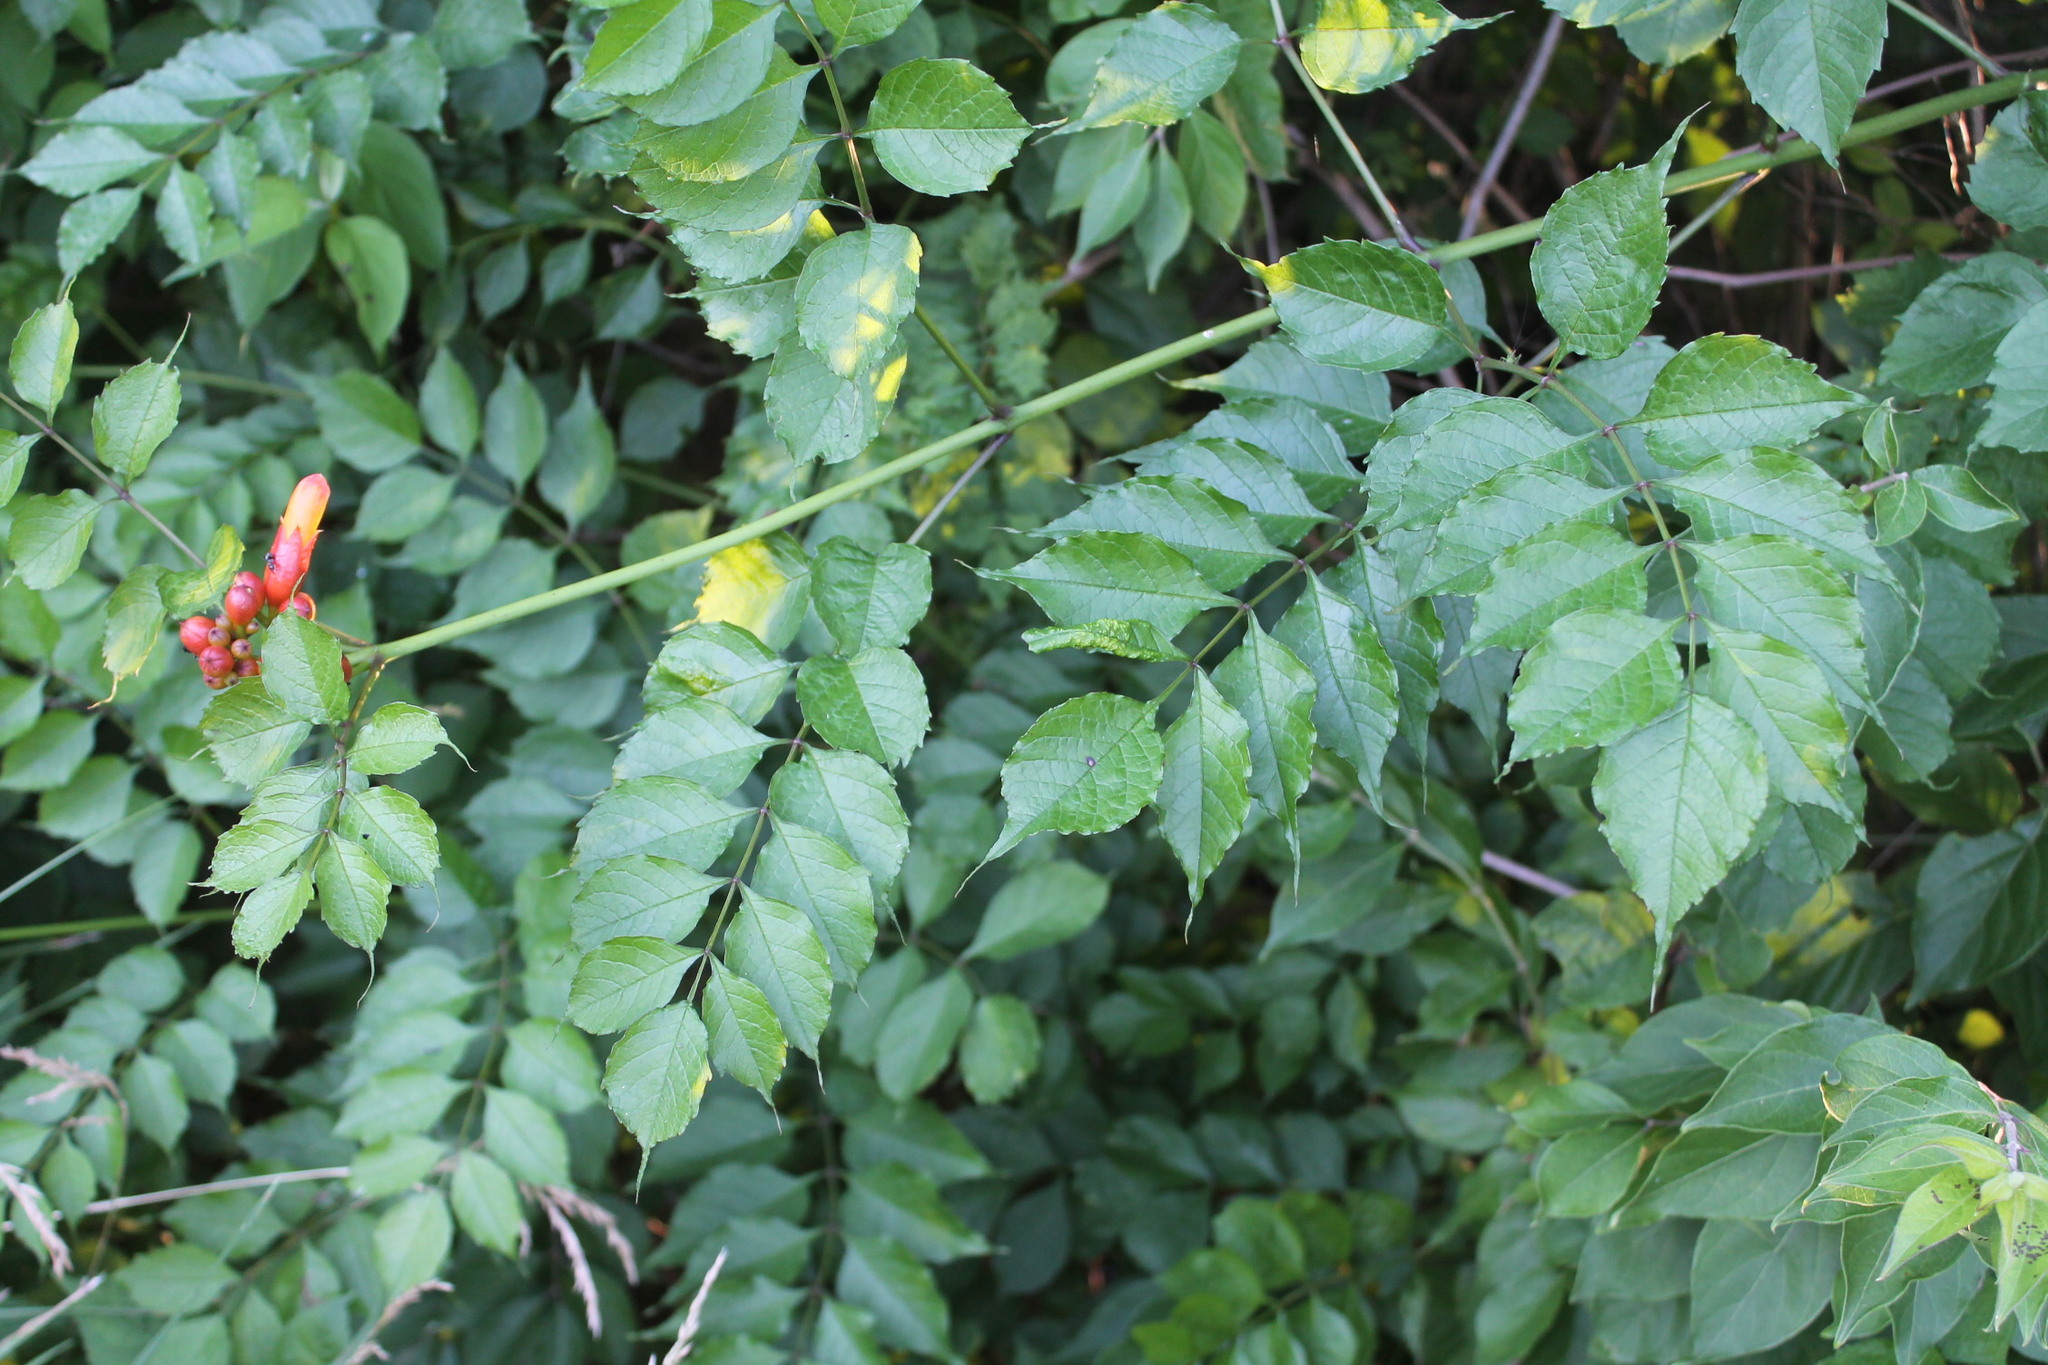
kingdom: Plantae
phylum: Tracheophyta
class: Magnoliopsida
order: Lamiales
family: Bignoniaceae
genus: Campsis
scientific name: Campsis radicans
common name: Trumpet-creeper
